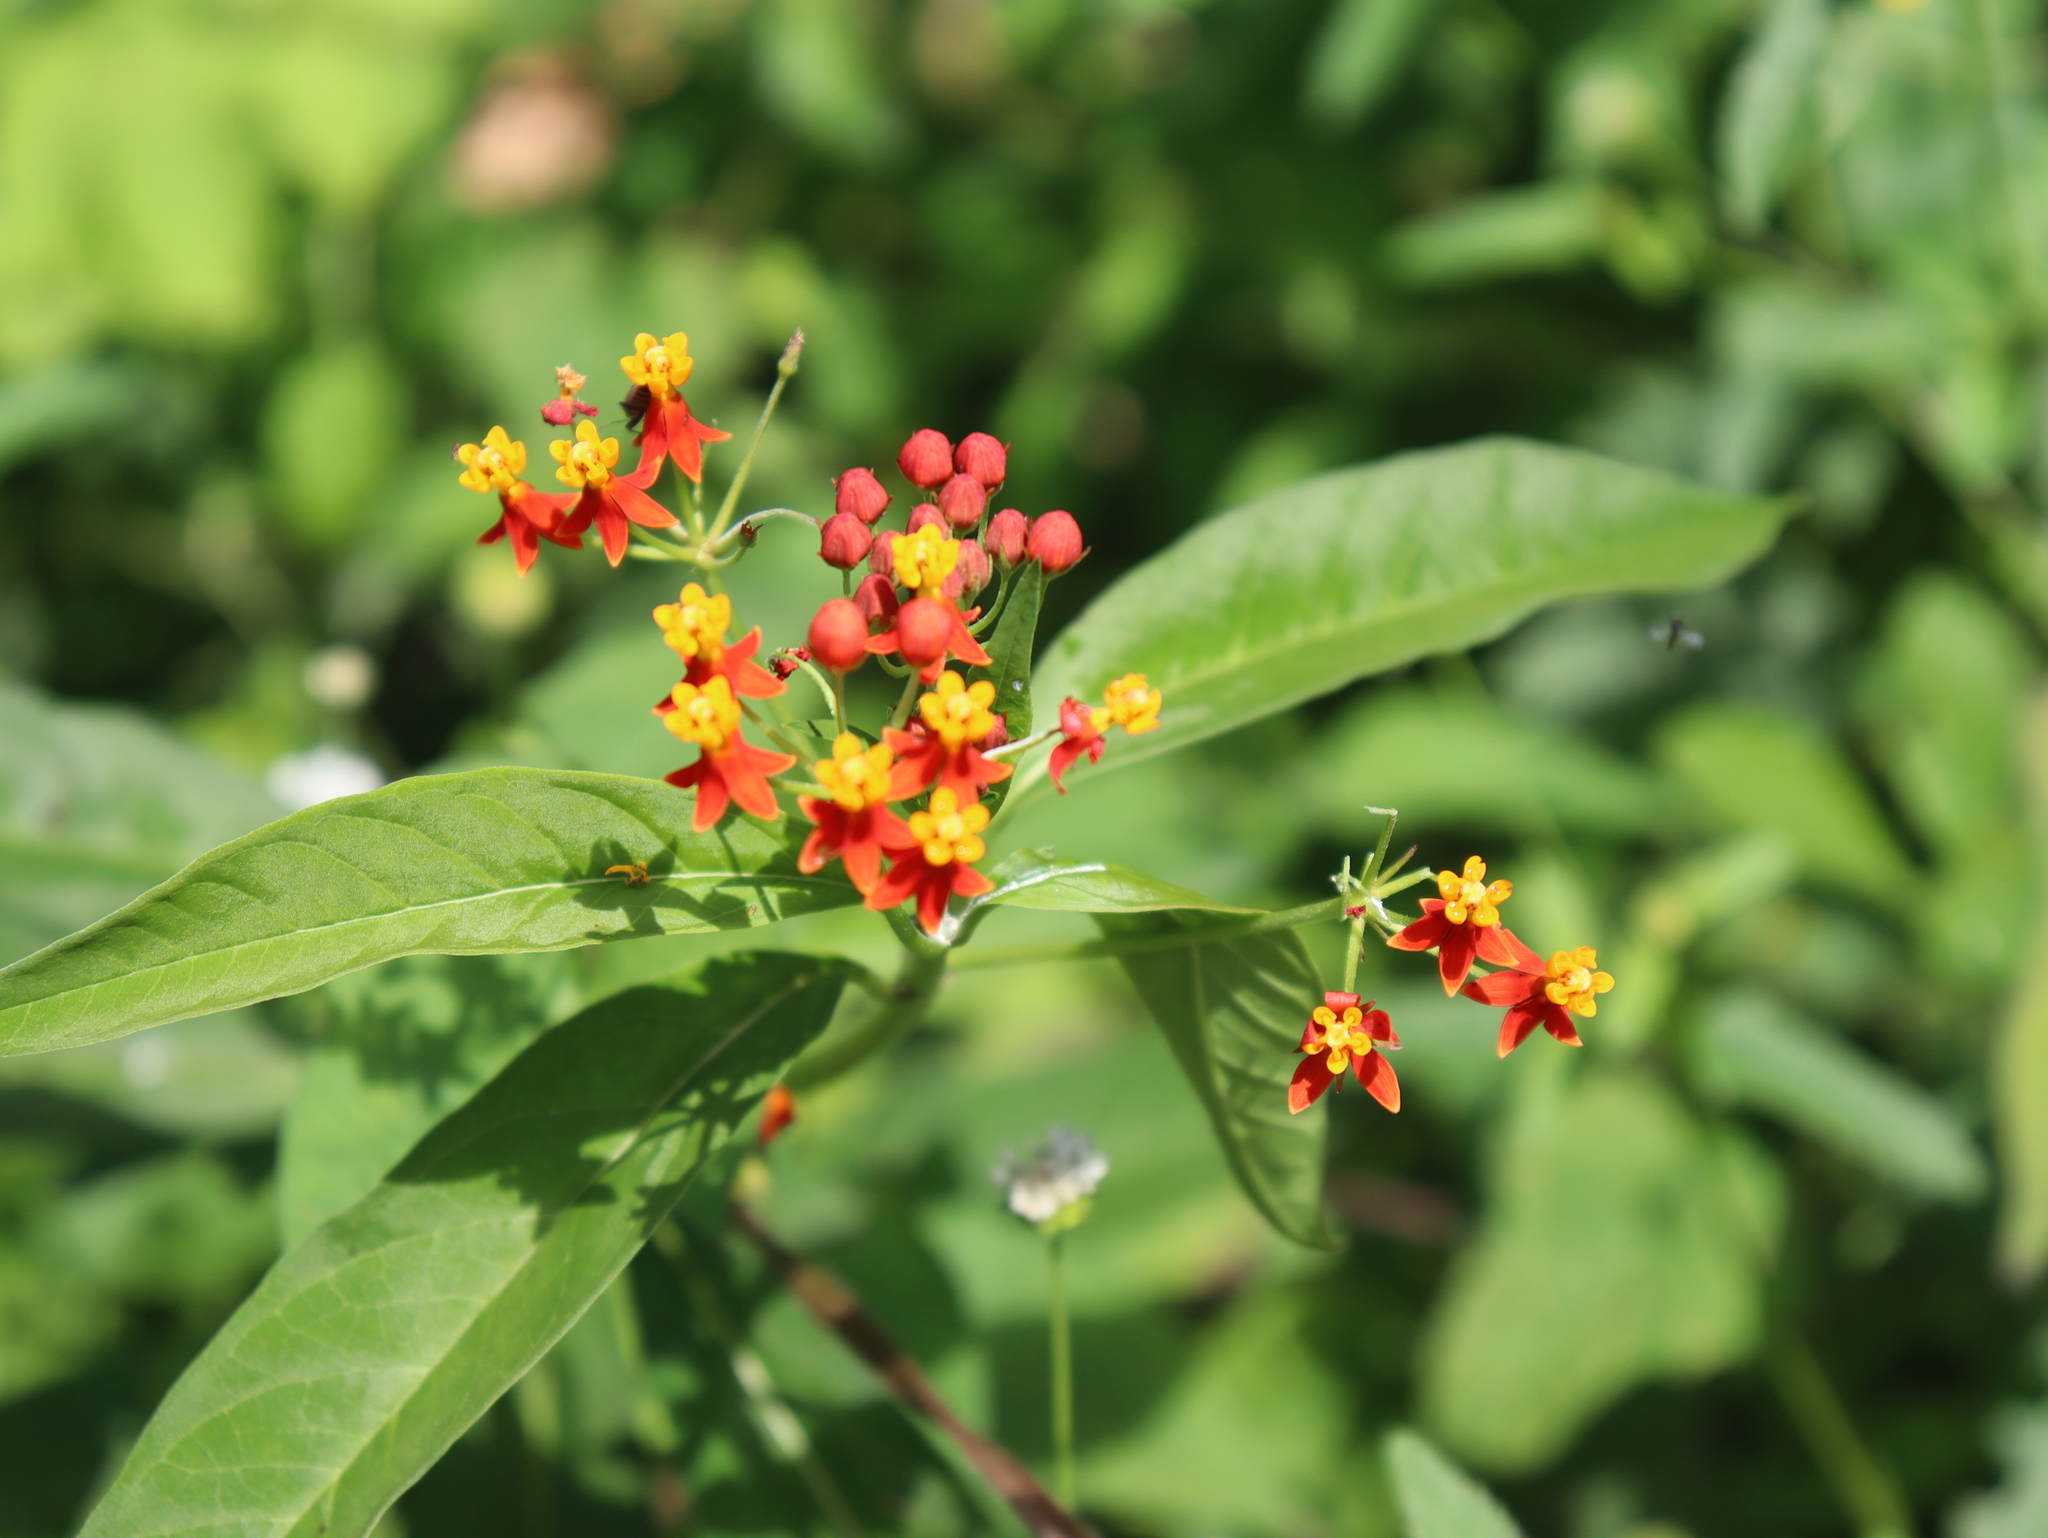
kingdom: Plantae
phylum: Tracheophyta
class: Magnoliopsida
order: Gentianales
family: Apocynaceae
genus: Asclepias
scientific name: Asclepias curassavica
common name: Bloodflower
